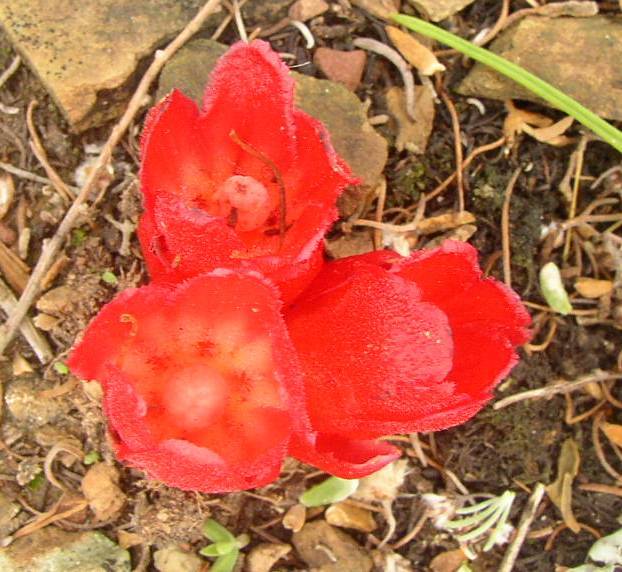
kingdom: Plantae
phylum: Tracheophyta
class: Magnoliopsida
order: Malvales
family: Cytinaceae
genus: Cytinus
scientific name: Cytinus sanguineus
